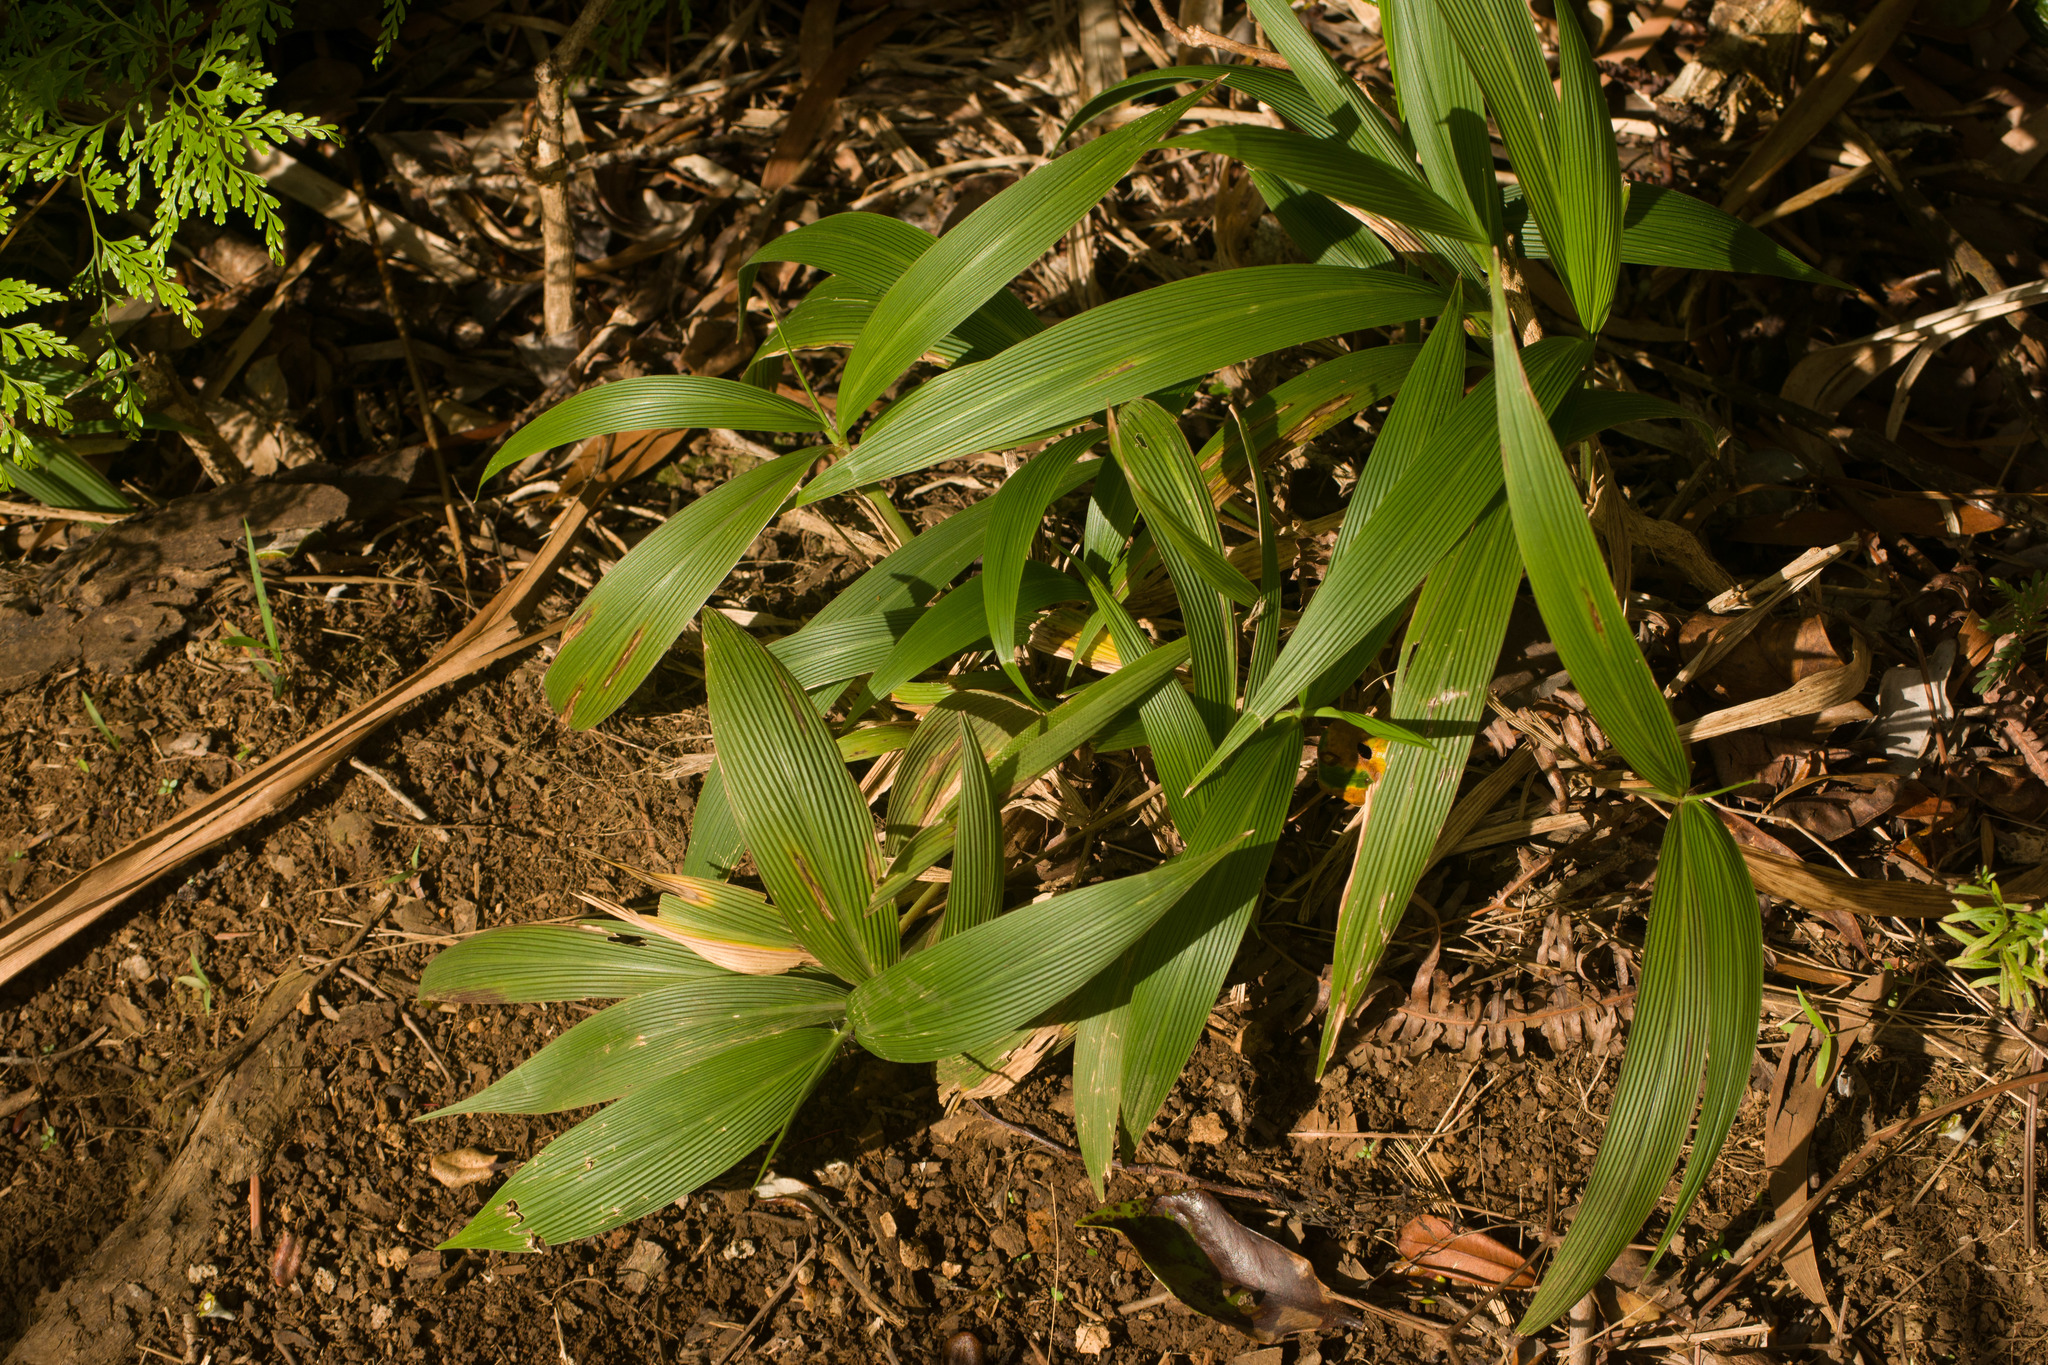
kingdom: Plantae
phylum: Tracheophyta
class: Liliopsida
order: Poales
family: Poaceae
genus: Setaria
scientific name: Setaria palmifolia
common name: Broadleaved bristlegrass
